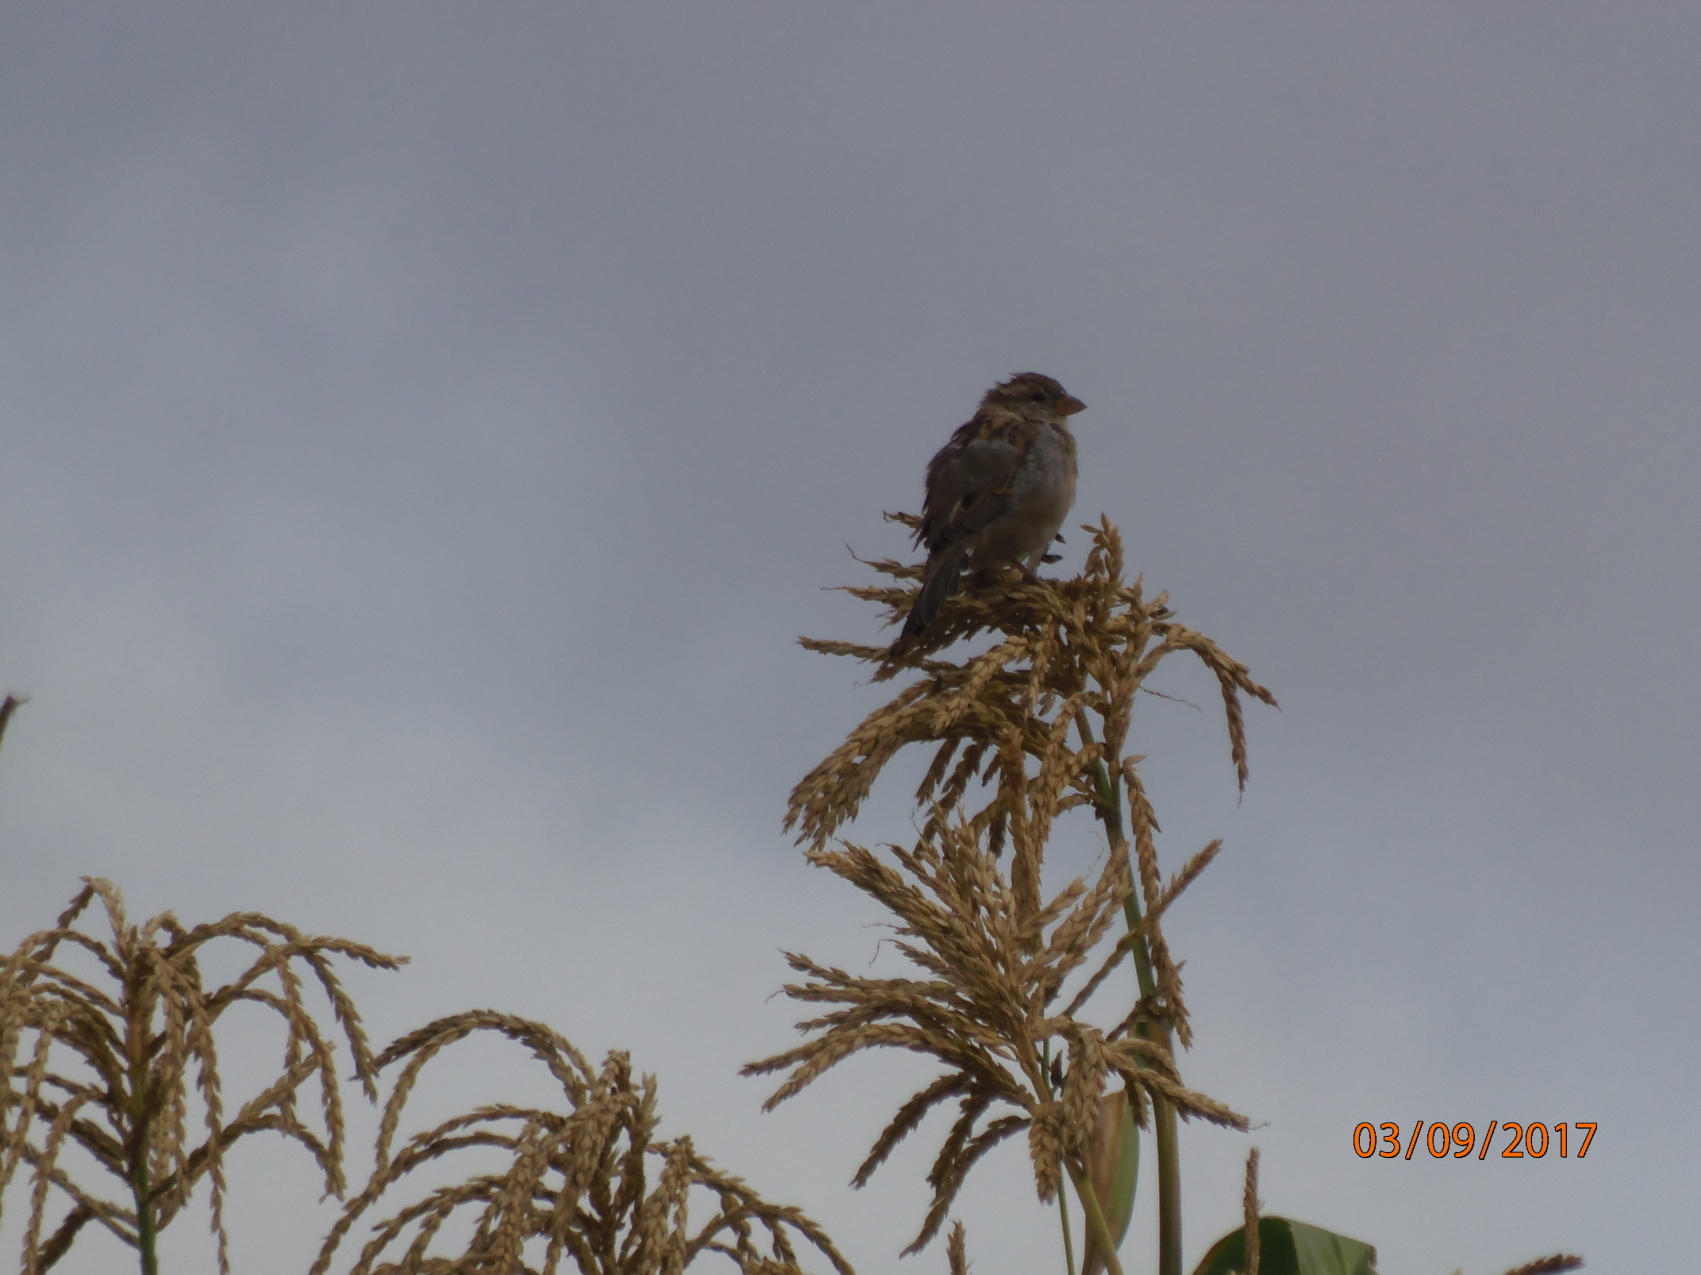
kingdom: Animalia
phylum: Chordata
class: Aves
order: Passeriformes
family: Passeridae
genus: Passer
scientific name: Passer domesticus
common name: House sparrow
